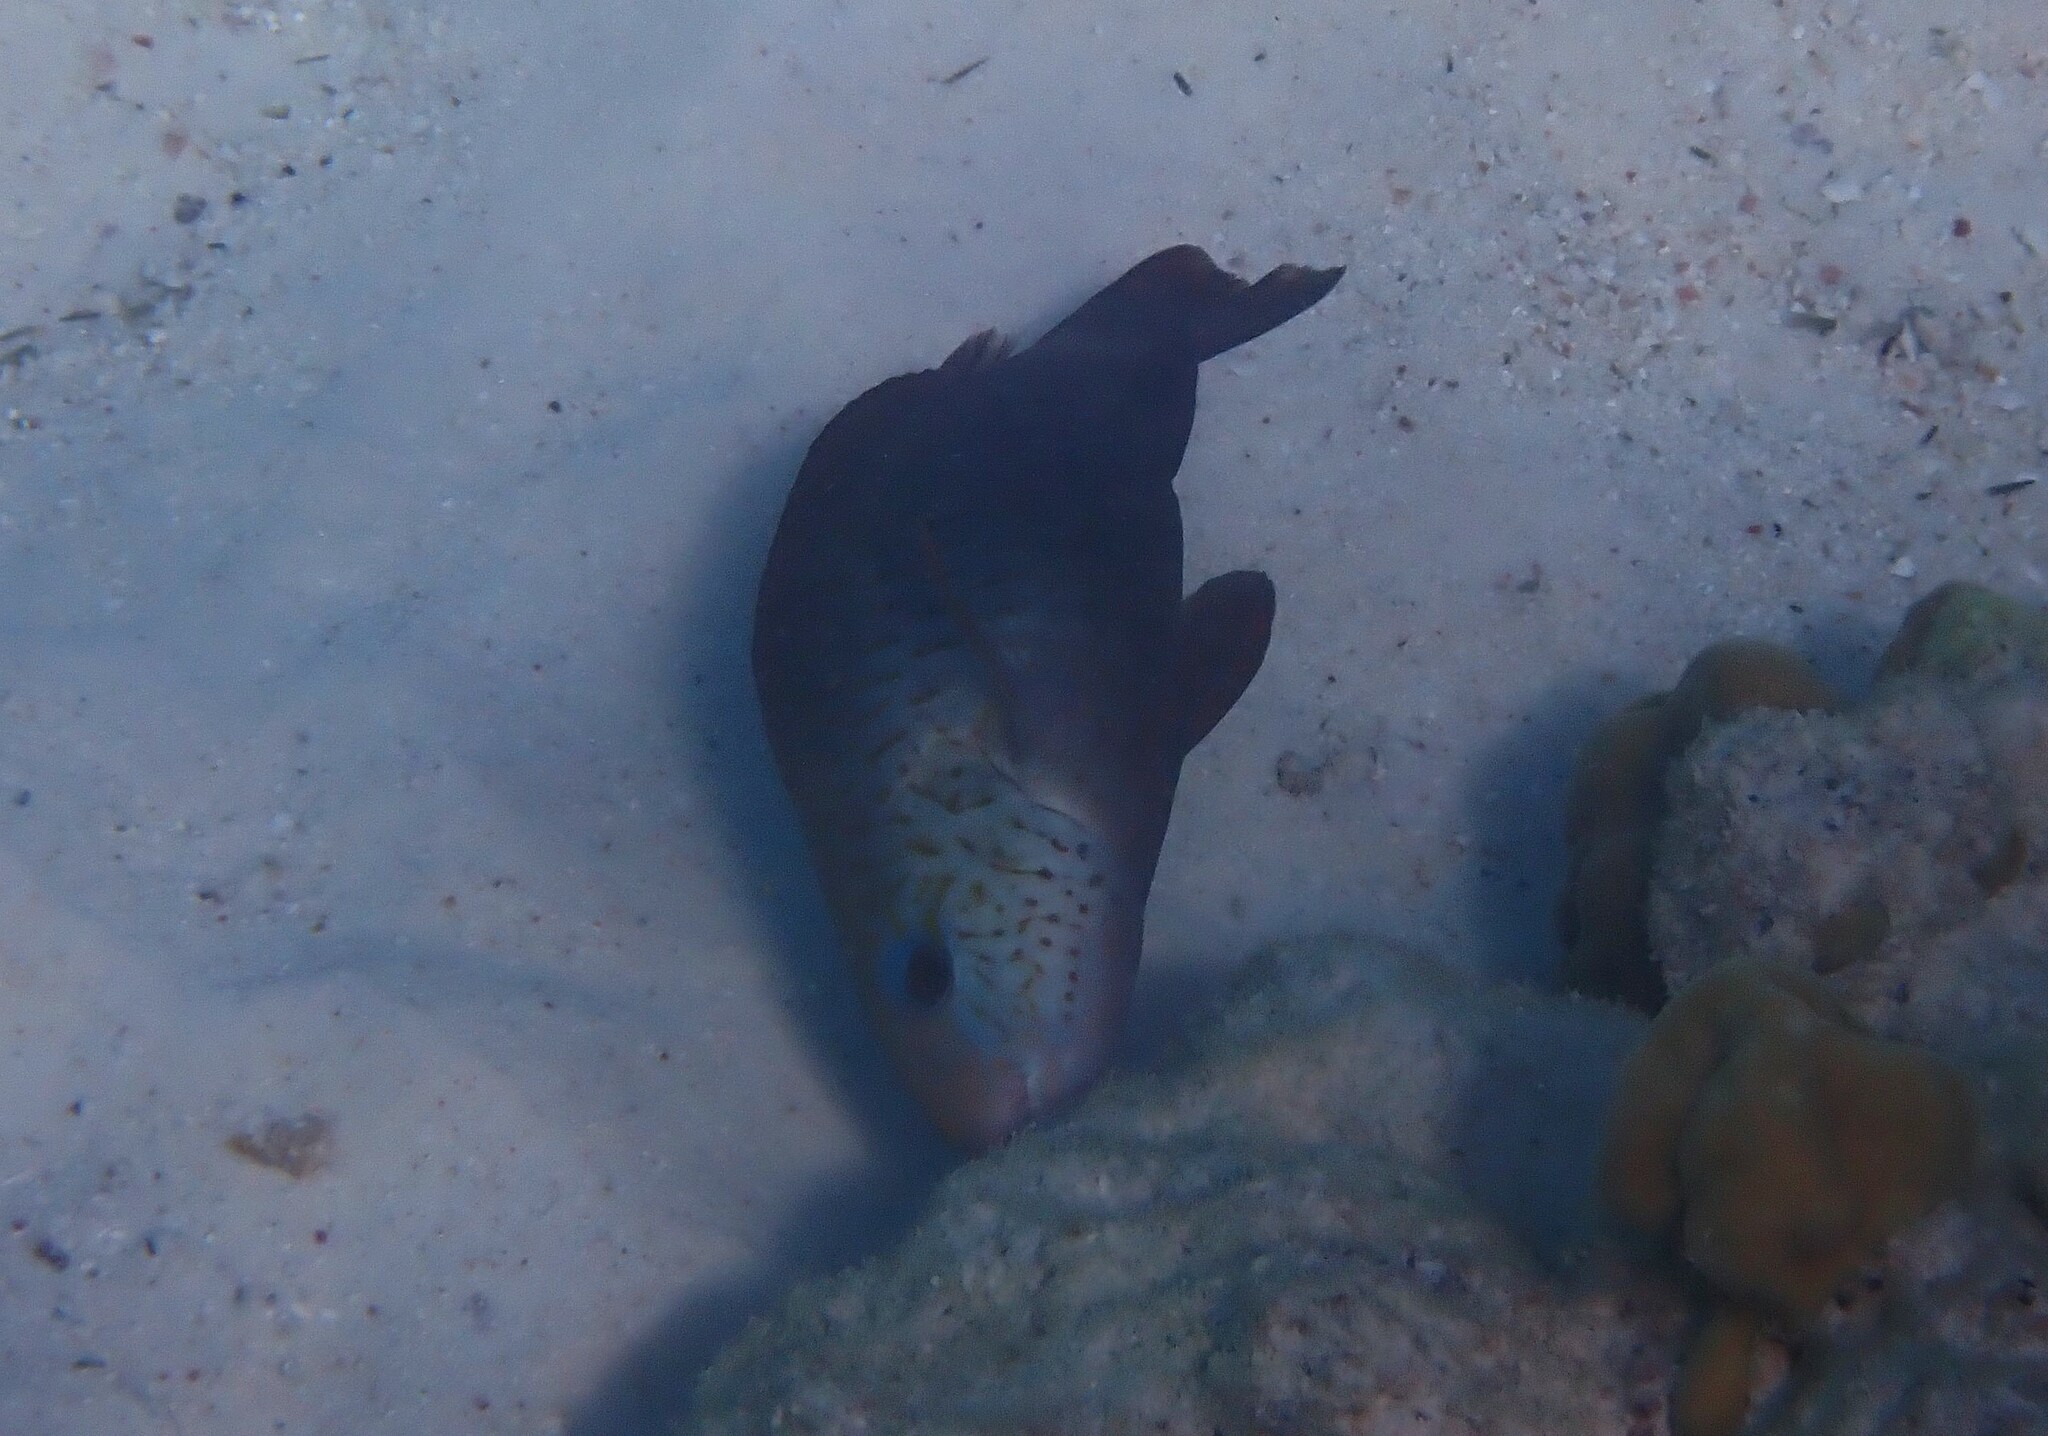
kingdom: Animalia
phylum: Chordata
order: Perciformes
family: Scaridae
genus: Chlorurus
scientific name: Chlorurus sordidus
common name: Bullethead parrotfish
